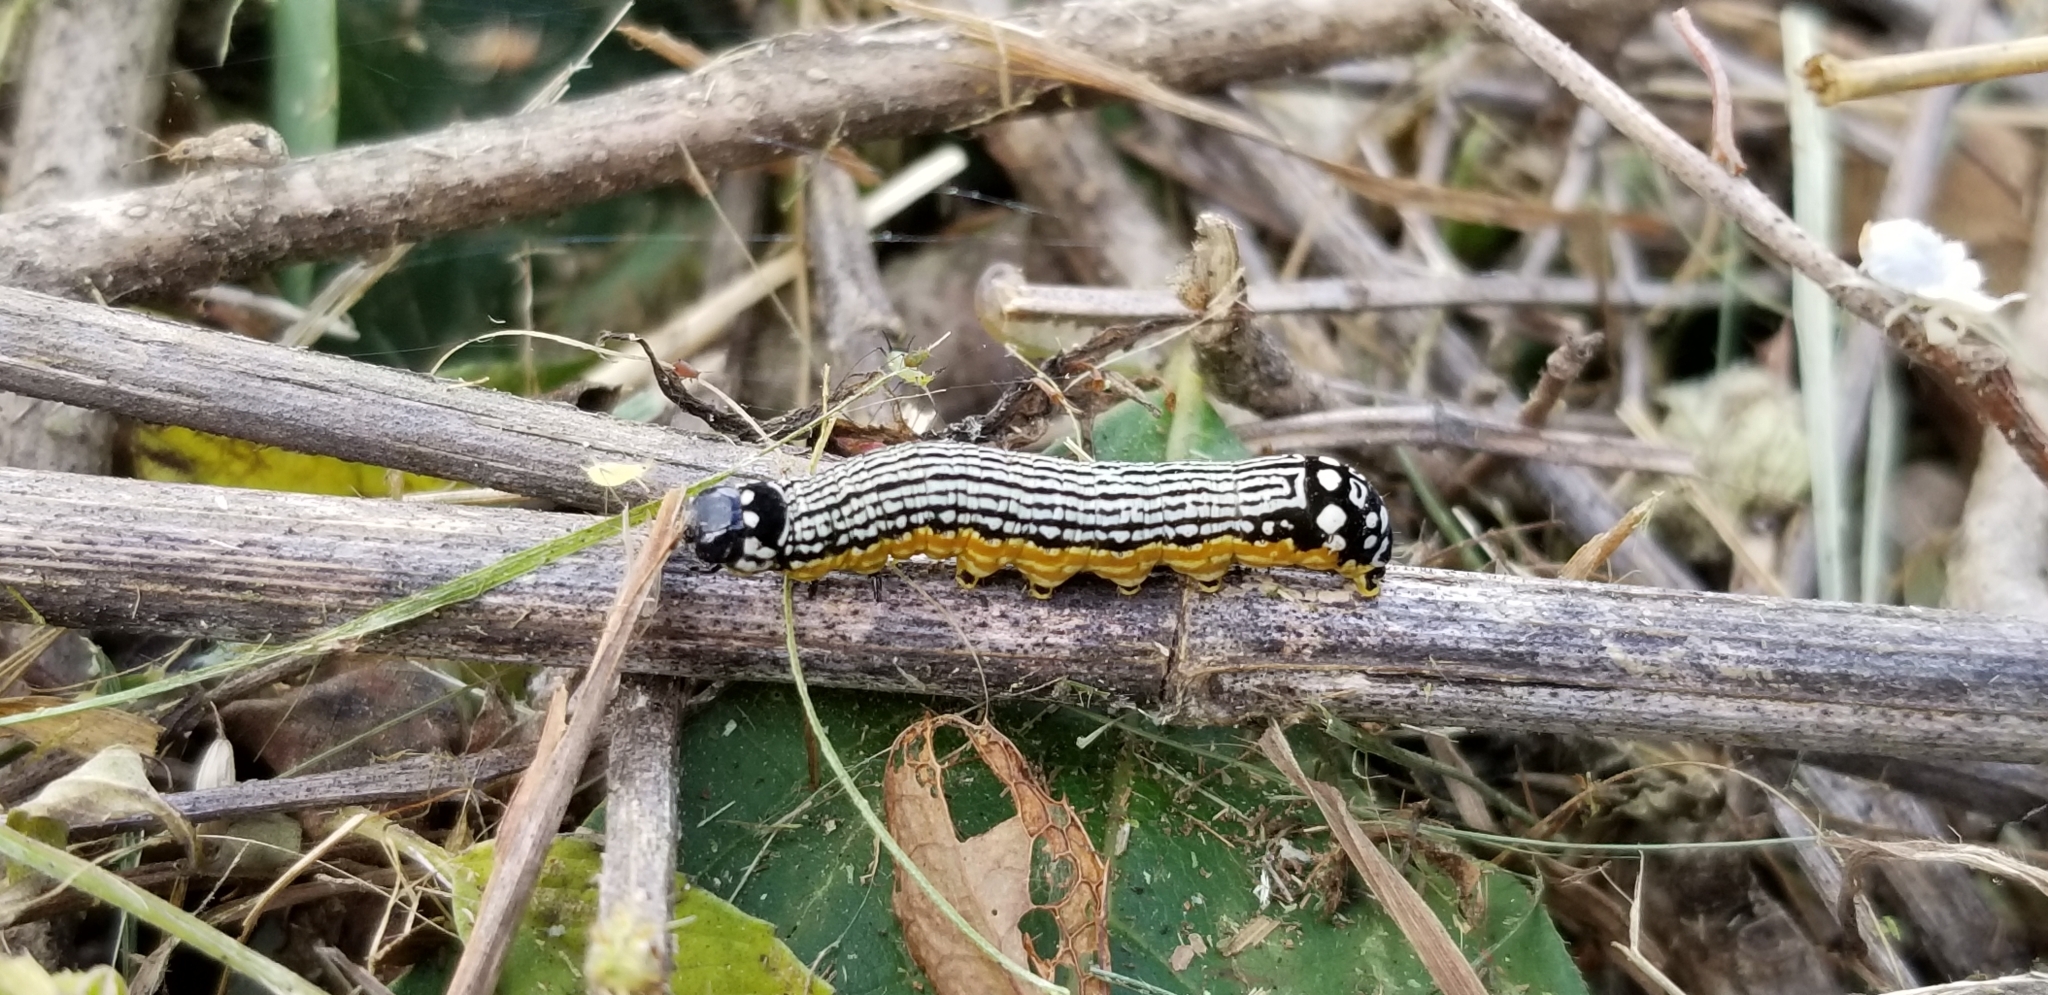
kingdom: Animalia
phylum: Arthropoda
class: Insecta
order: Lepidoptera
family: Noctuidae
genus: Phosphila
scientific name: Phosphila turbulenta
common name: Turbulent phosphila moth
